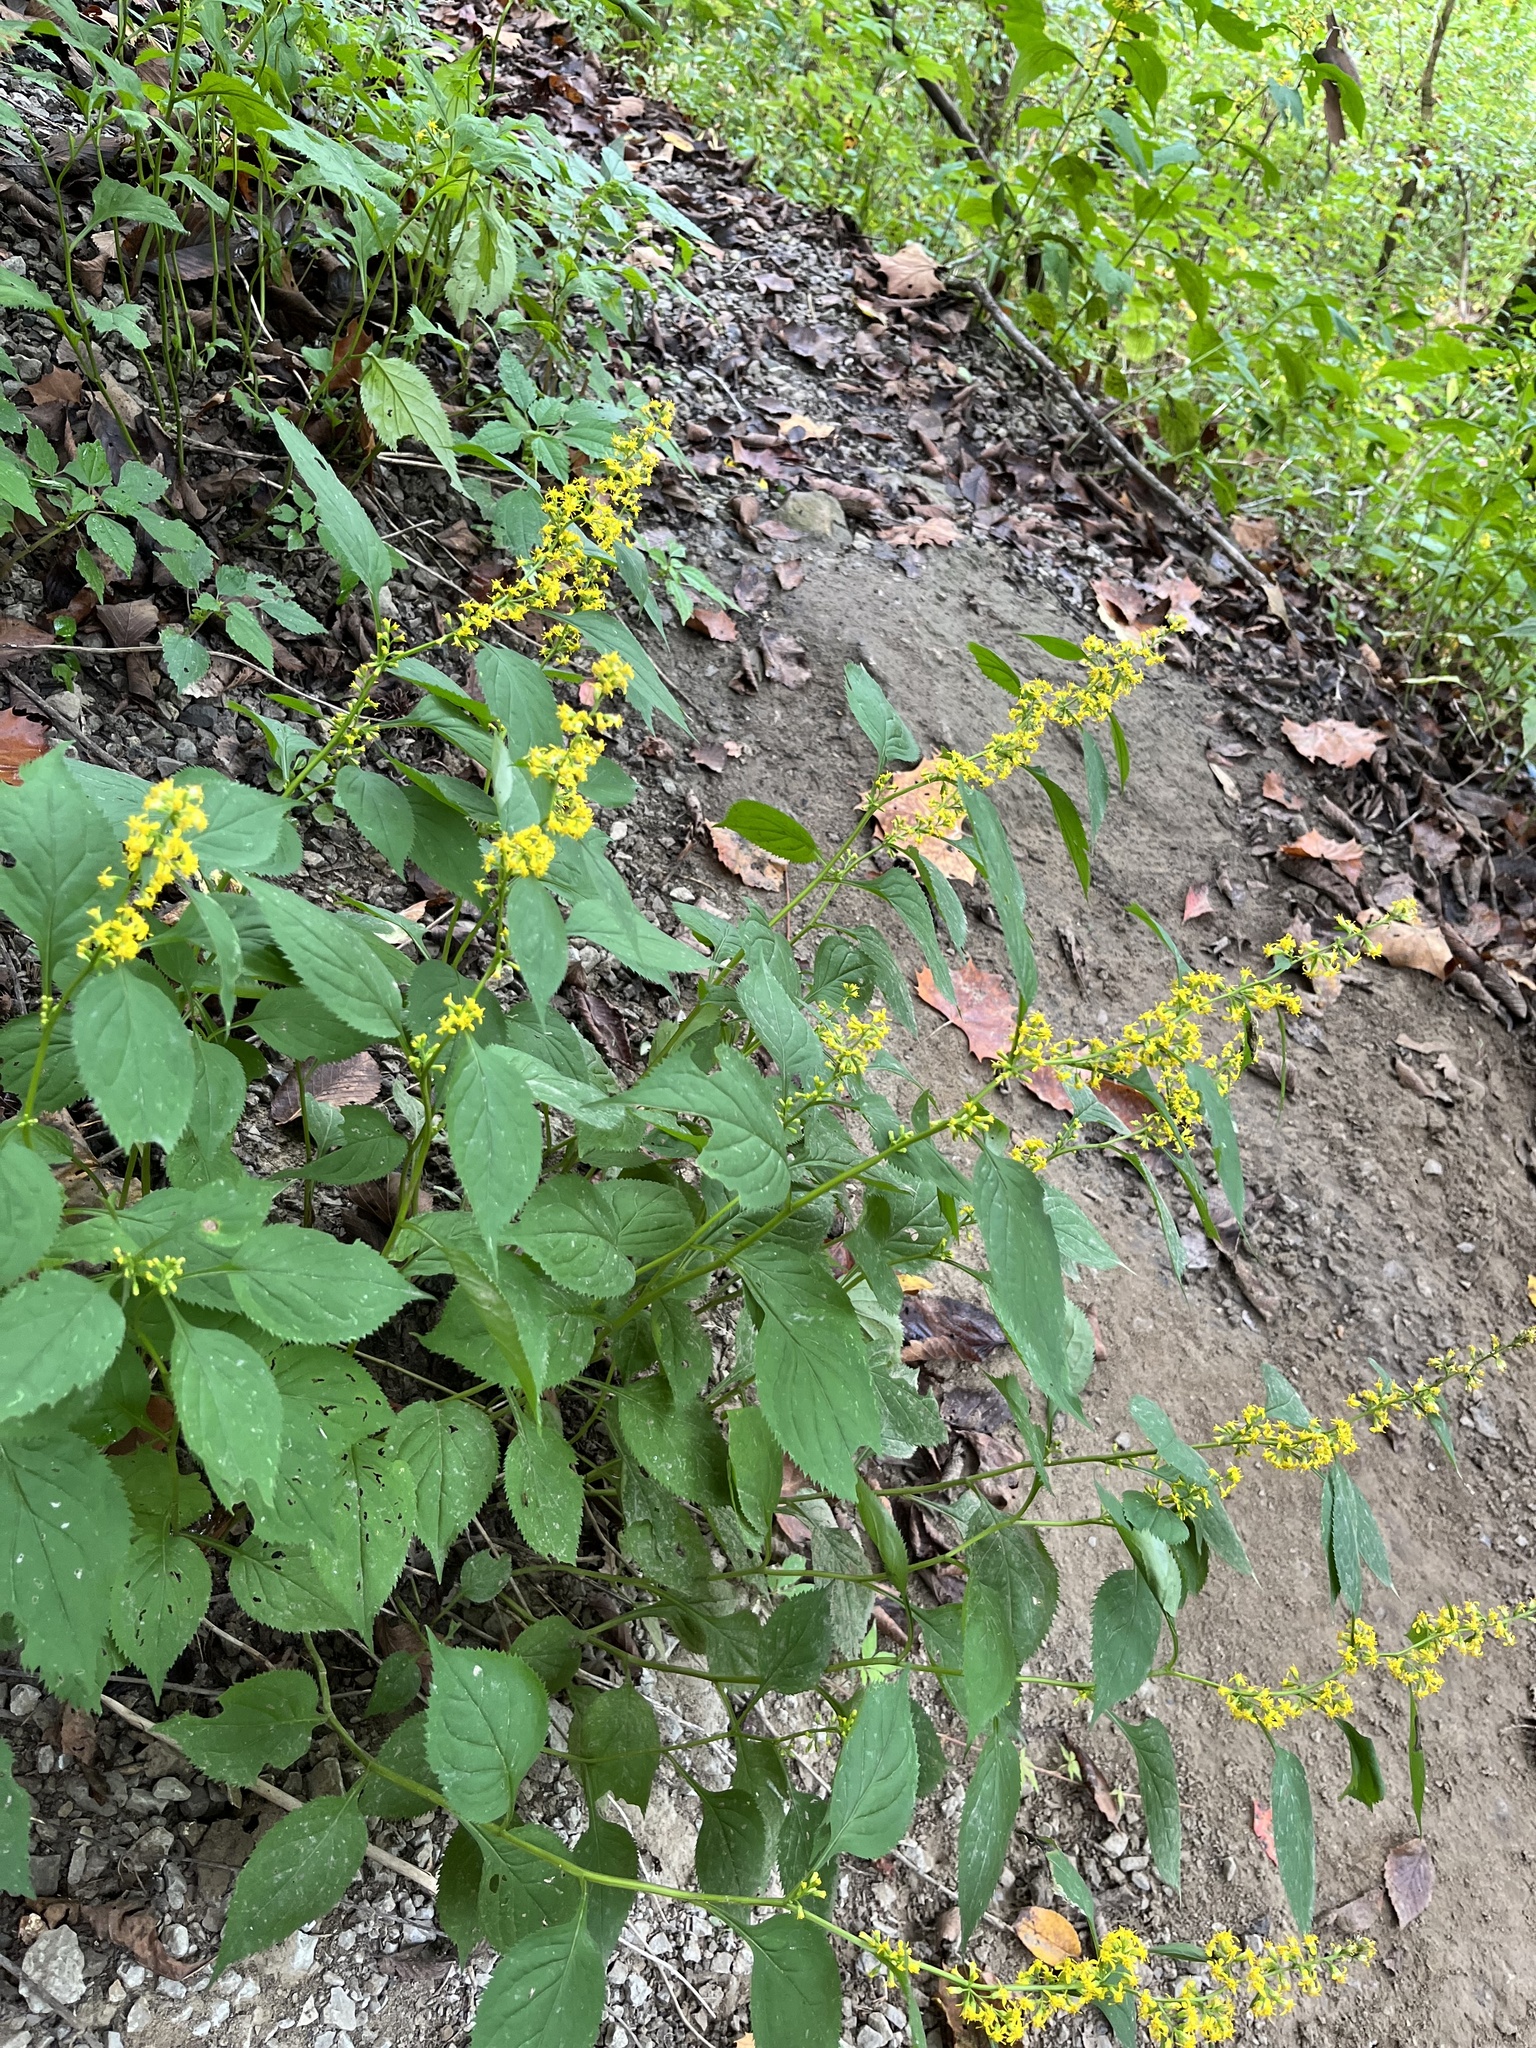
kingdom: Plantae
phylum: Tracheophyta
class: Magnoliopsida
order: Asterales
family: Asteraceae
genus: Solidago
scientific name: Solidago flexicaulis
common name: Zig-zag goldenrod
